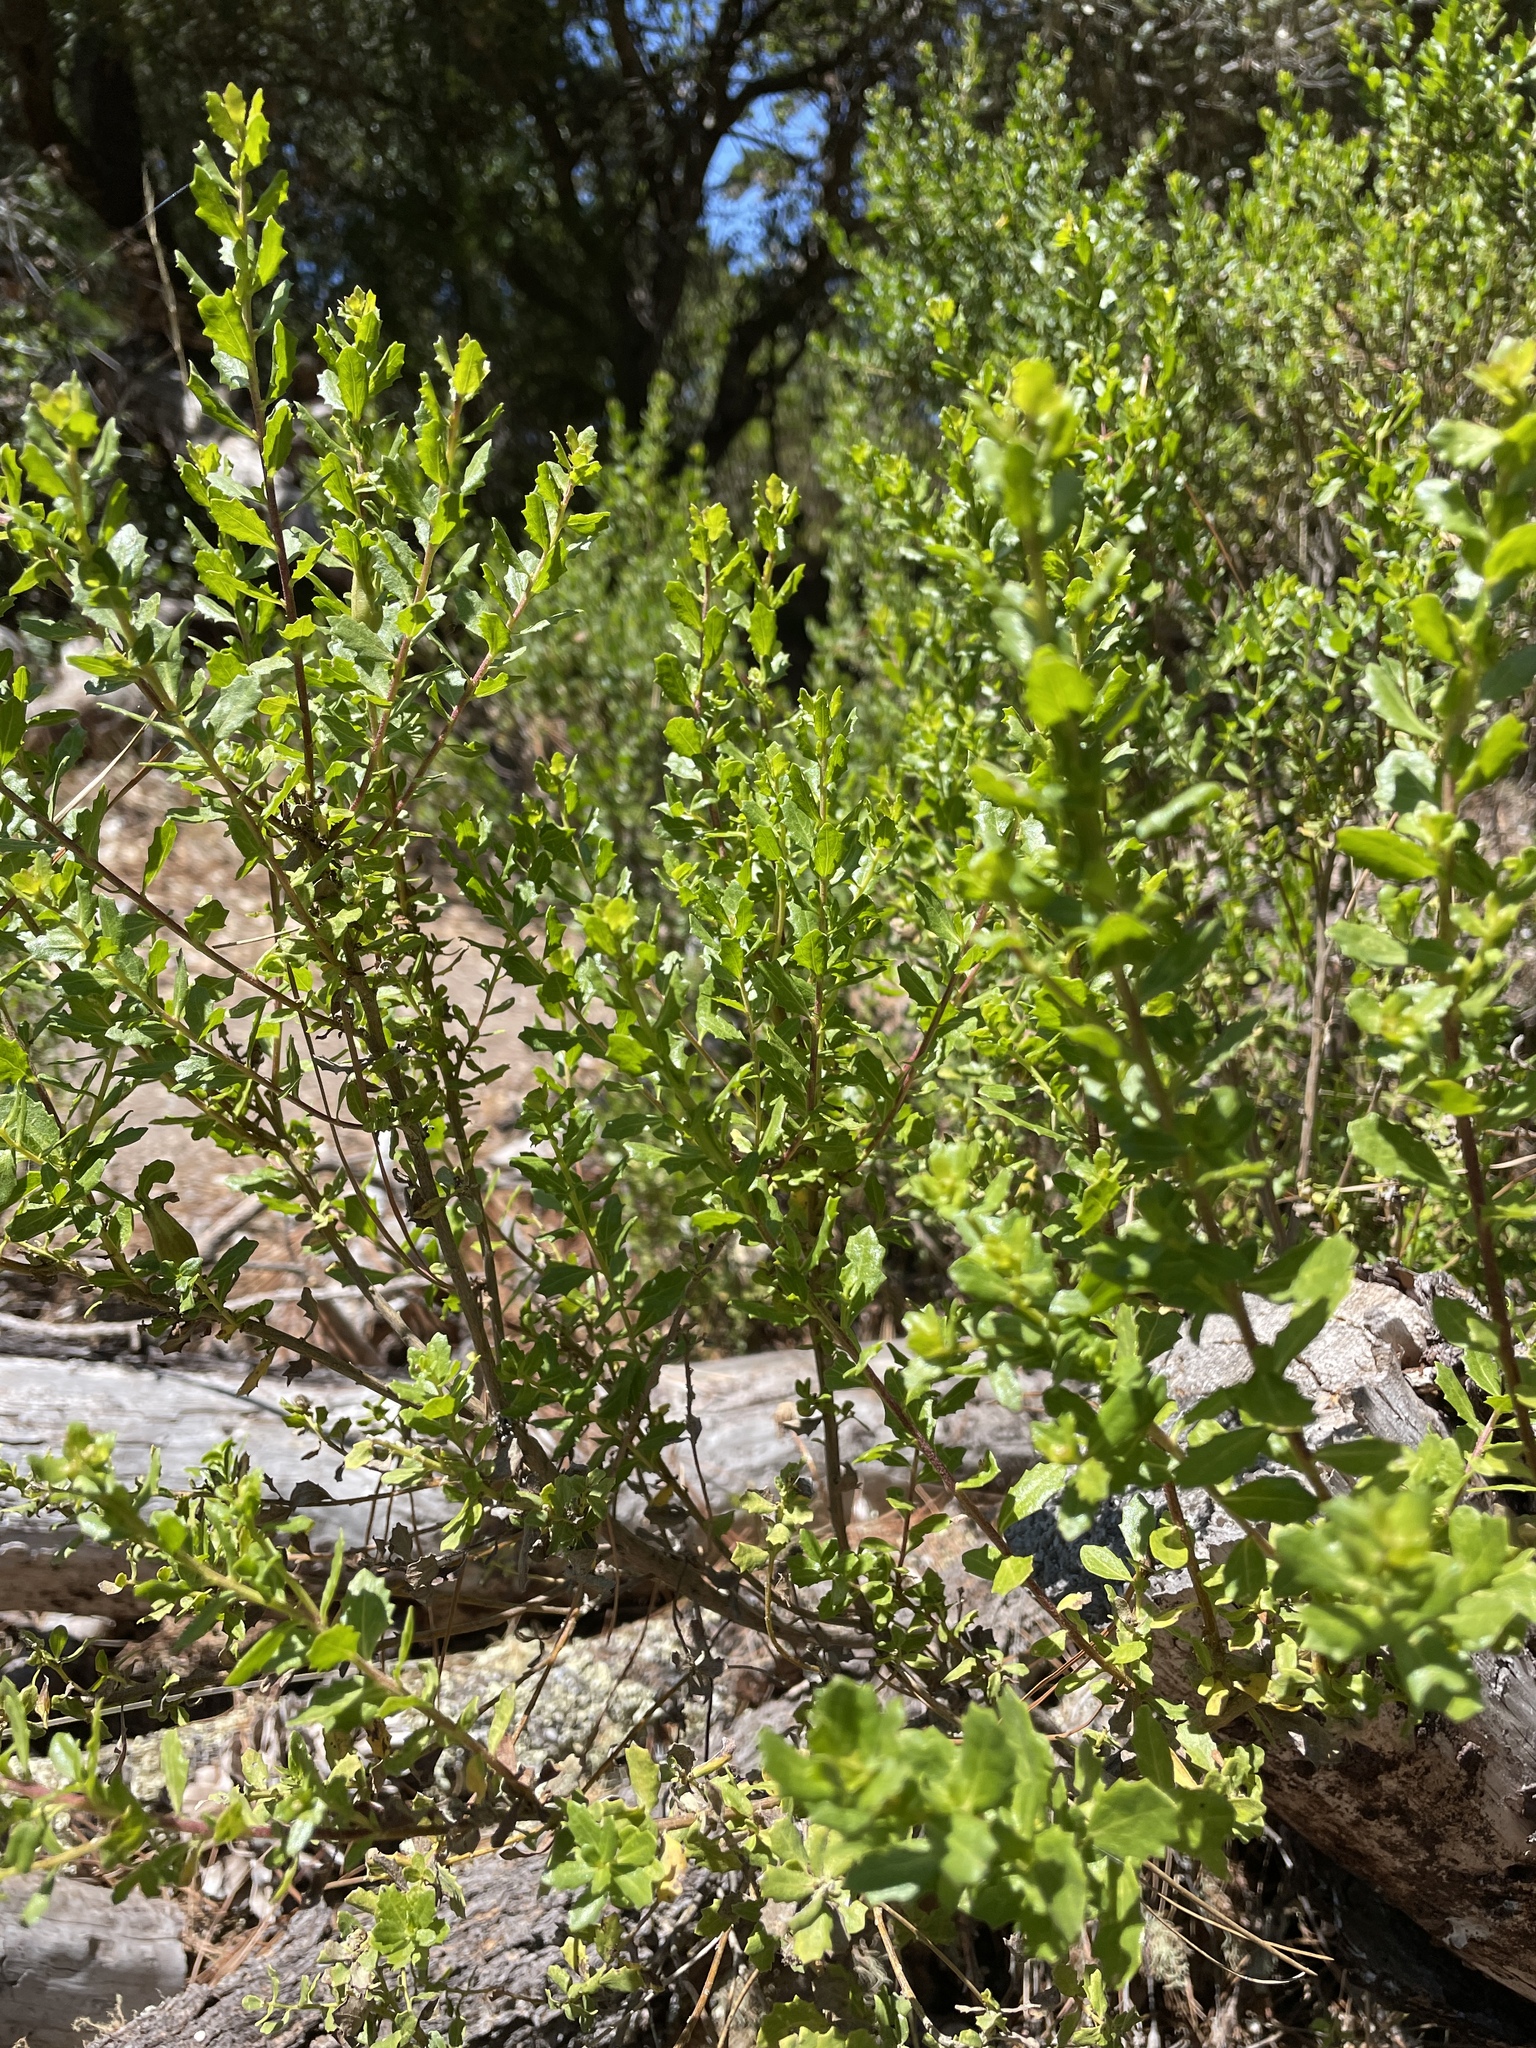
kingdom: Plantae
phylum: Tracheophyta
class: Magnoliopsida
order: Asterales
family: Asteraceae
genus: Baccharis
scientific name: Baccharis pilularis
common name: Coyotebrush
